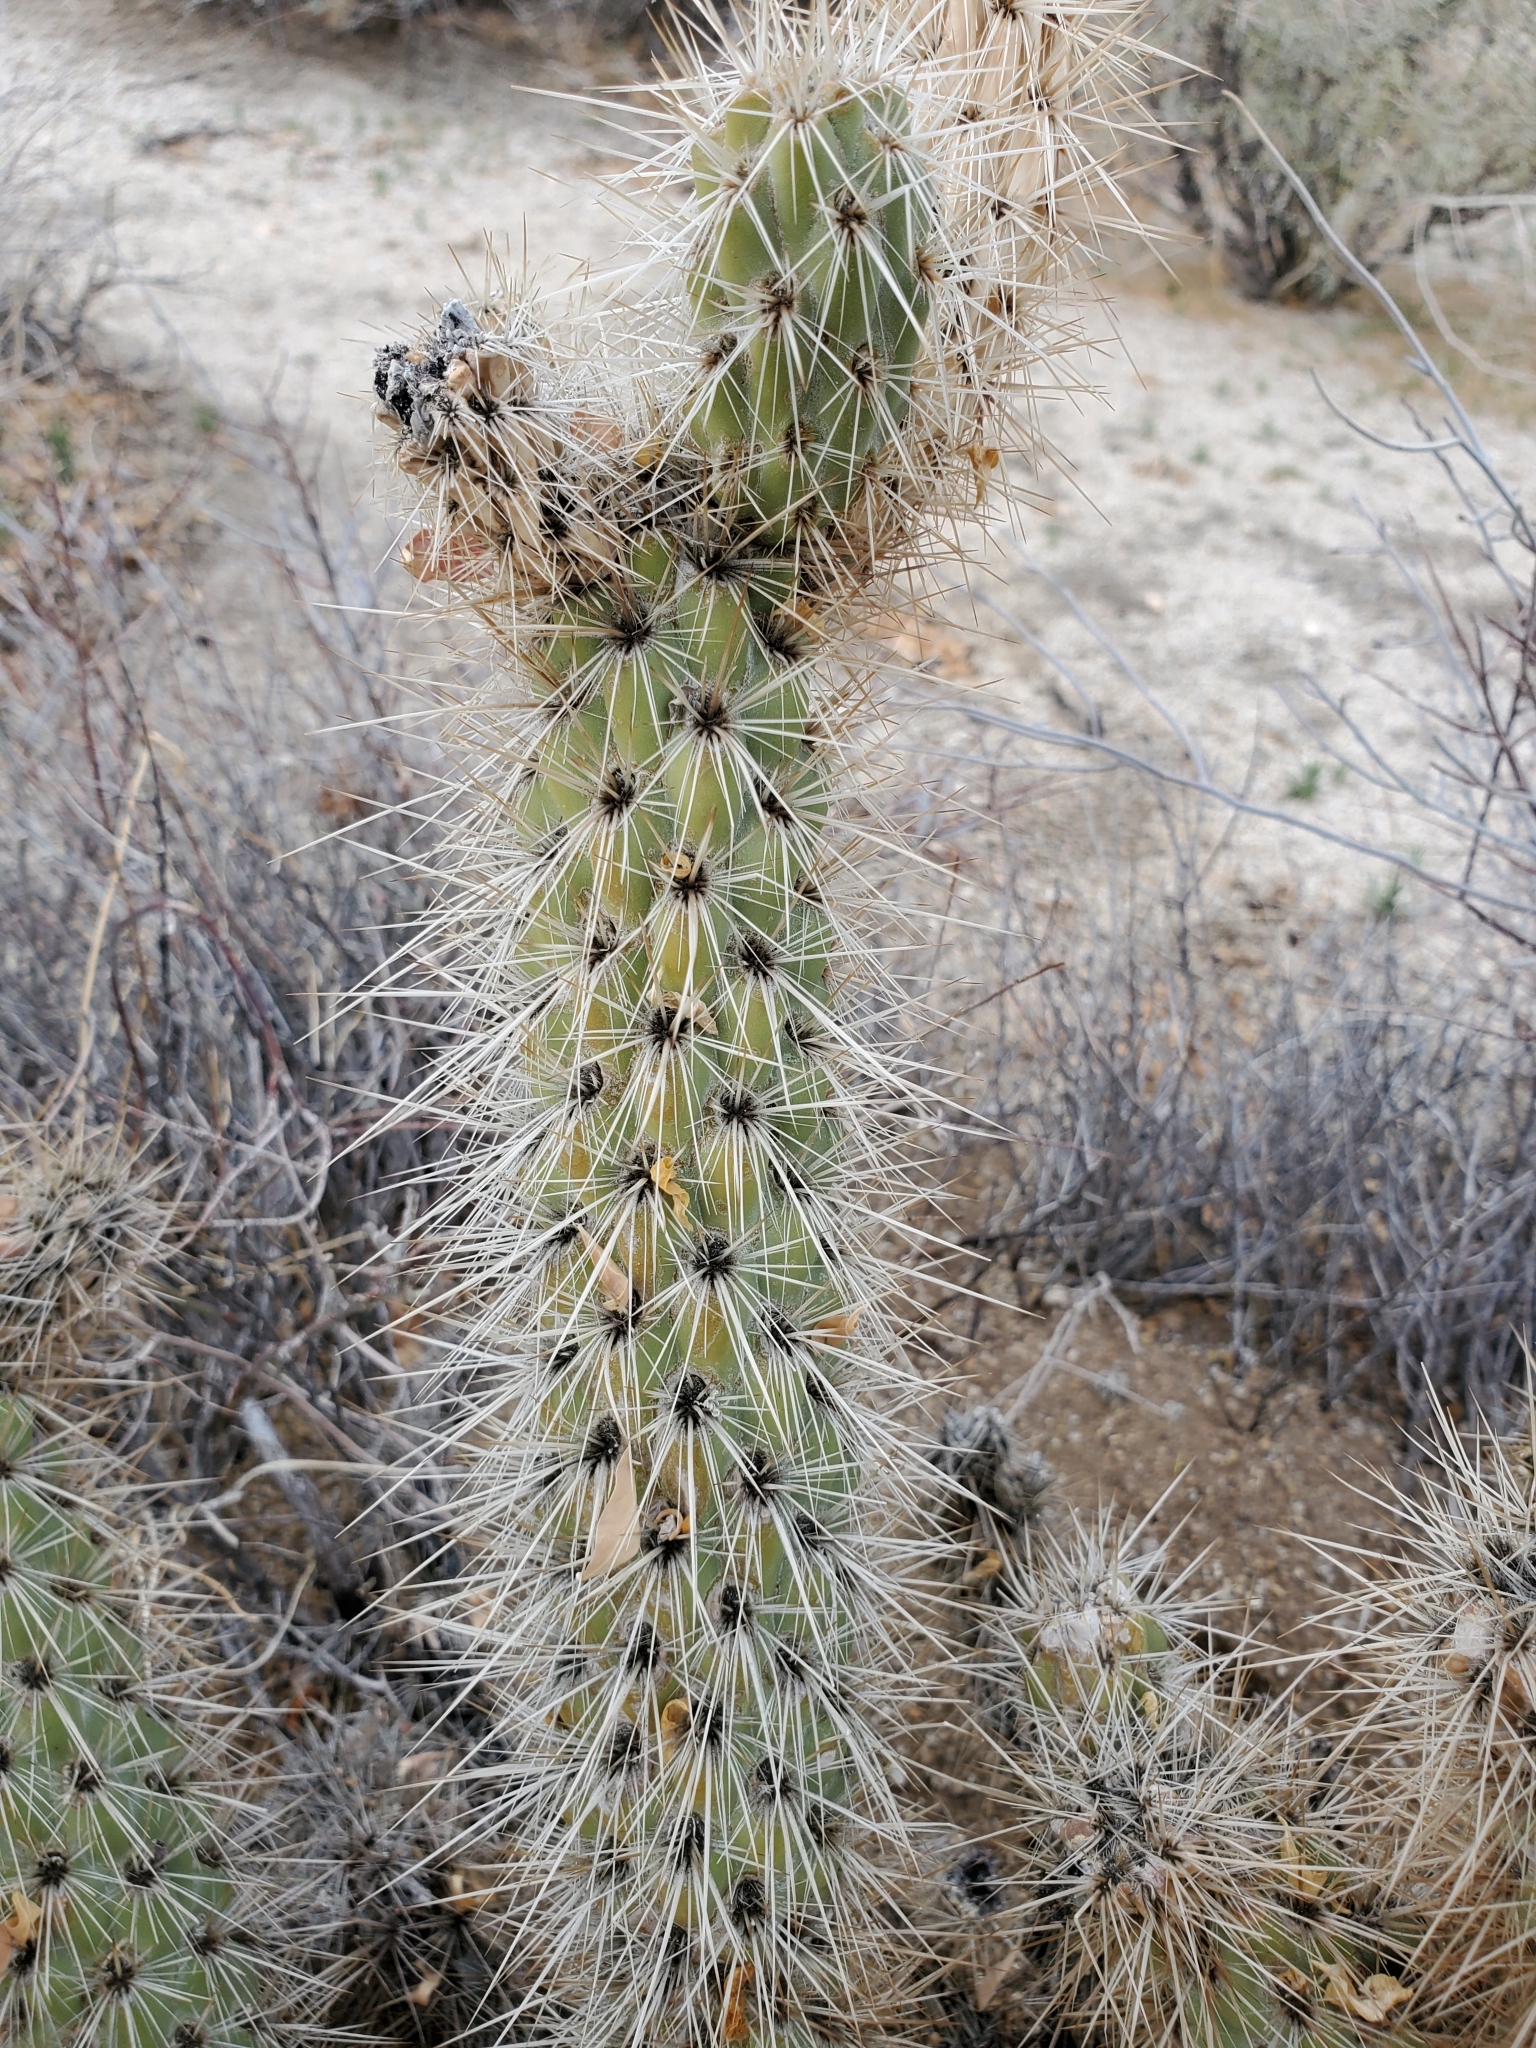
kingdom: Plantae
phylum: Tracheophyta
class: Magnoliopsida
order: Caryophyllales
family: Cactaceae
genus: Cylindropuntia
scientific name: Cylindropuntia ganderi
